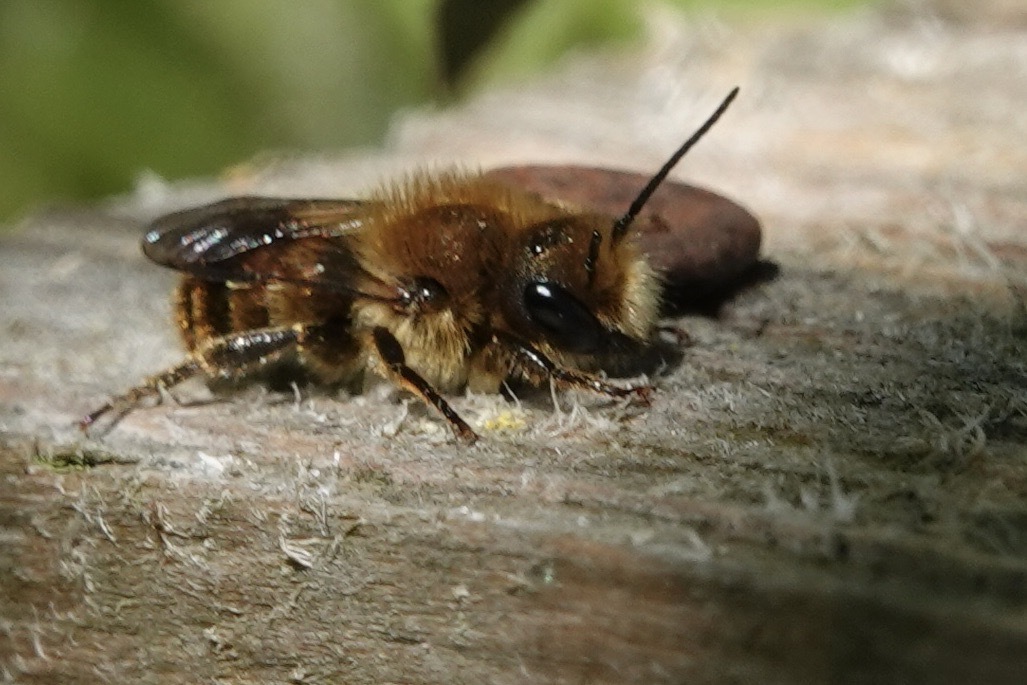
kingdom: Animalia
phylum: Arthropoda
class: Insecta
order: Hymenoptera
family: Megachilidae
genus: Osmia
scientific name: Osmia leaiana
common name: Orange-vented mason bee
